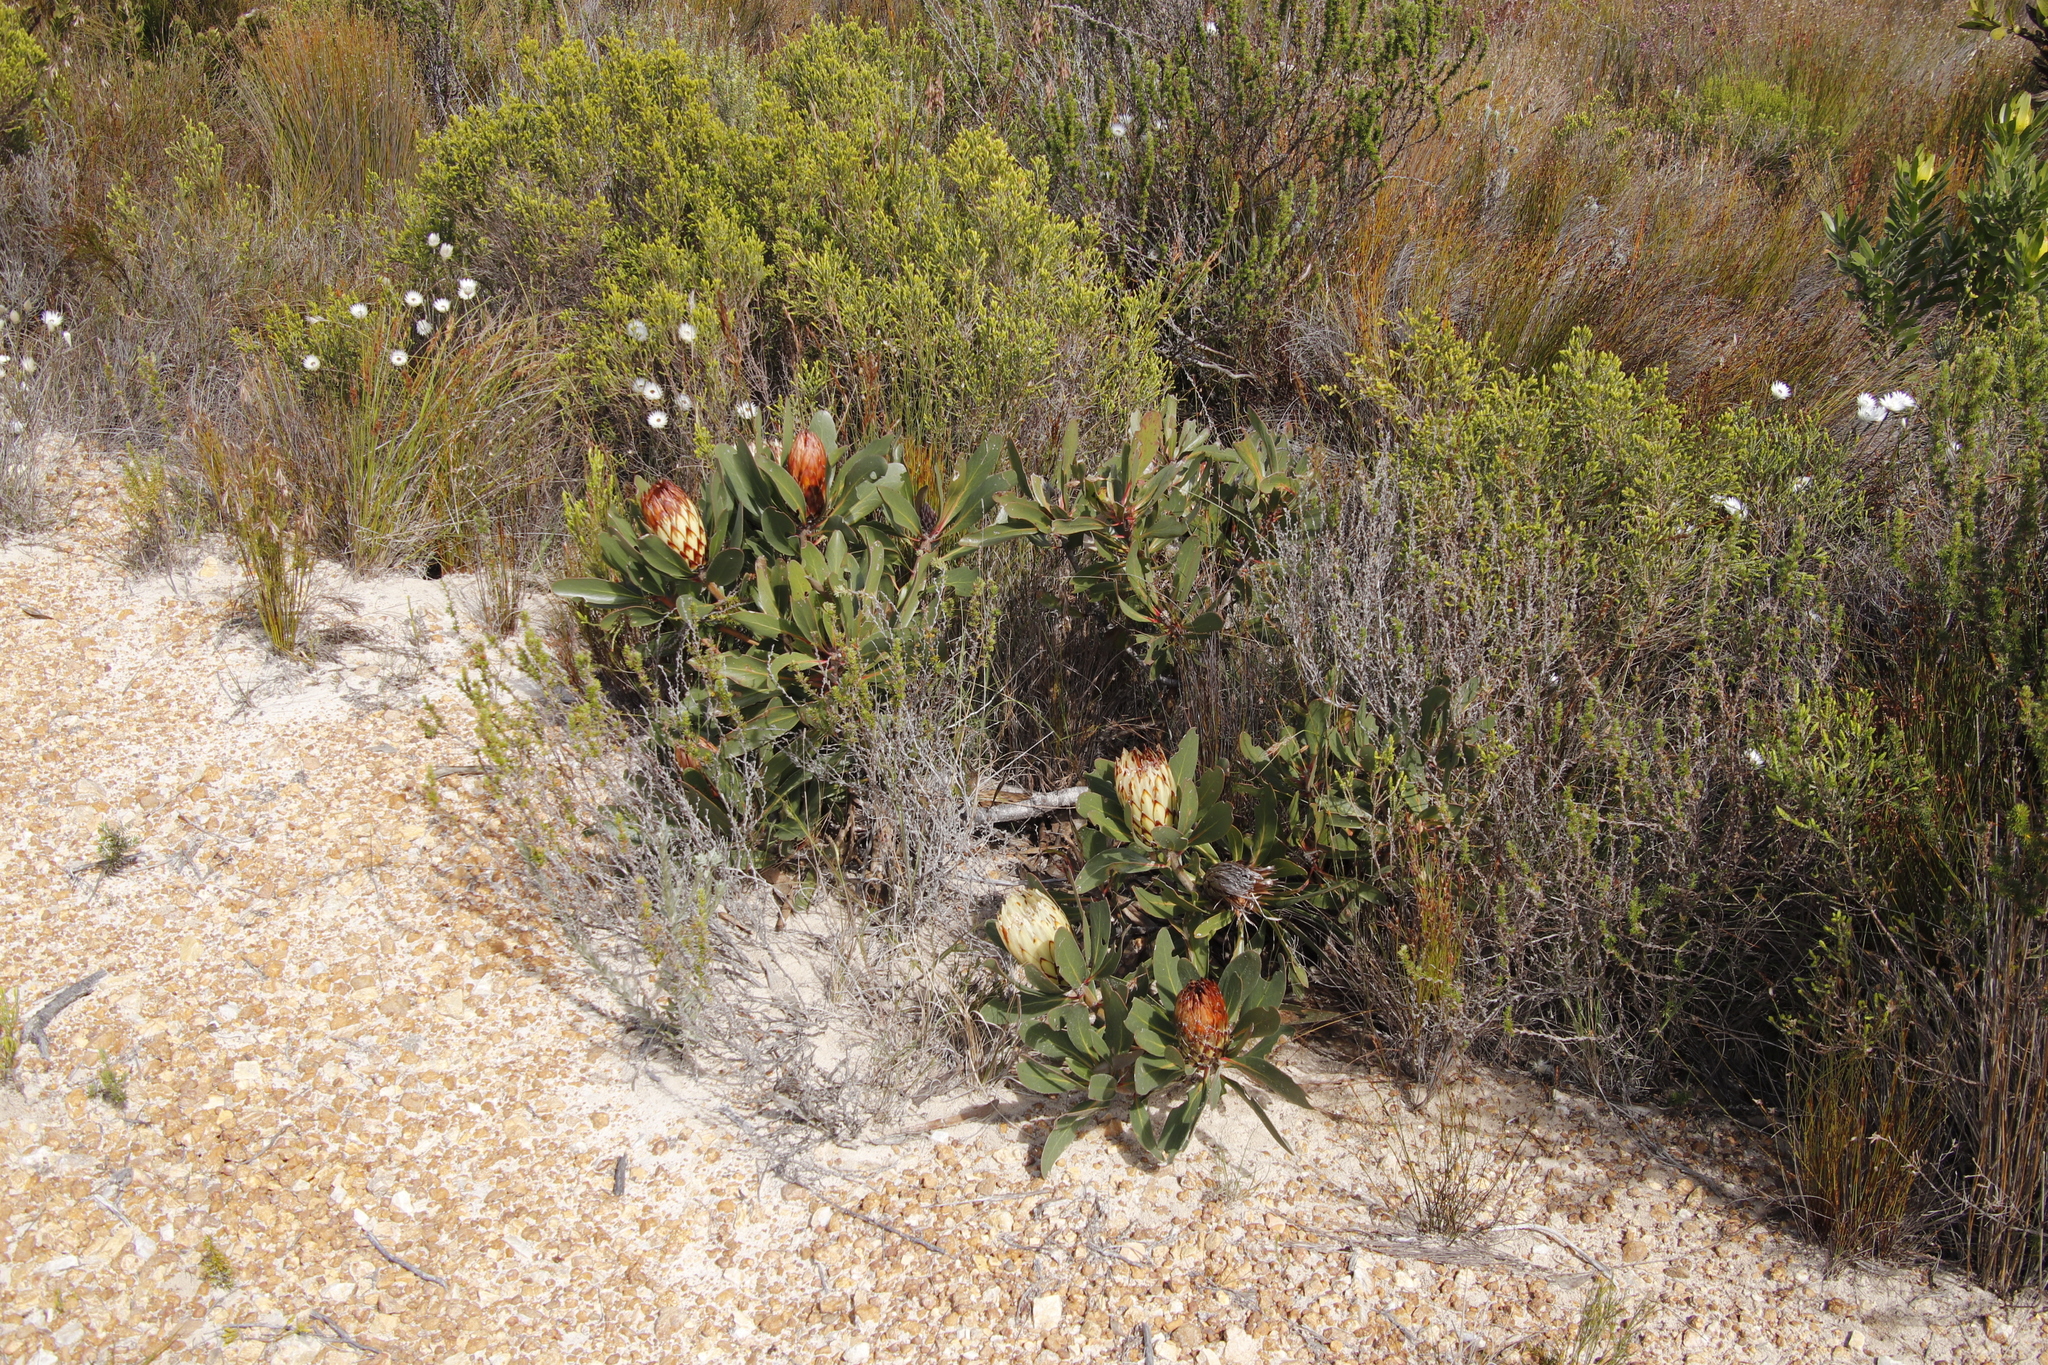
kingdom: Plantae
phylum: Tracheophyta
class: Magnoliopsida
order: Proteales
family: Proteaceae
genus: Protea
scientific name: Protea obtusifolia
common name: Bredasdorp sugarbush
